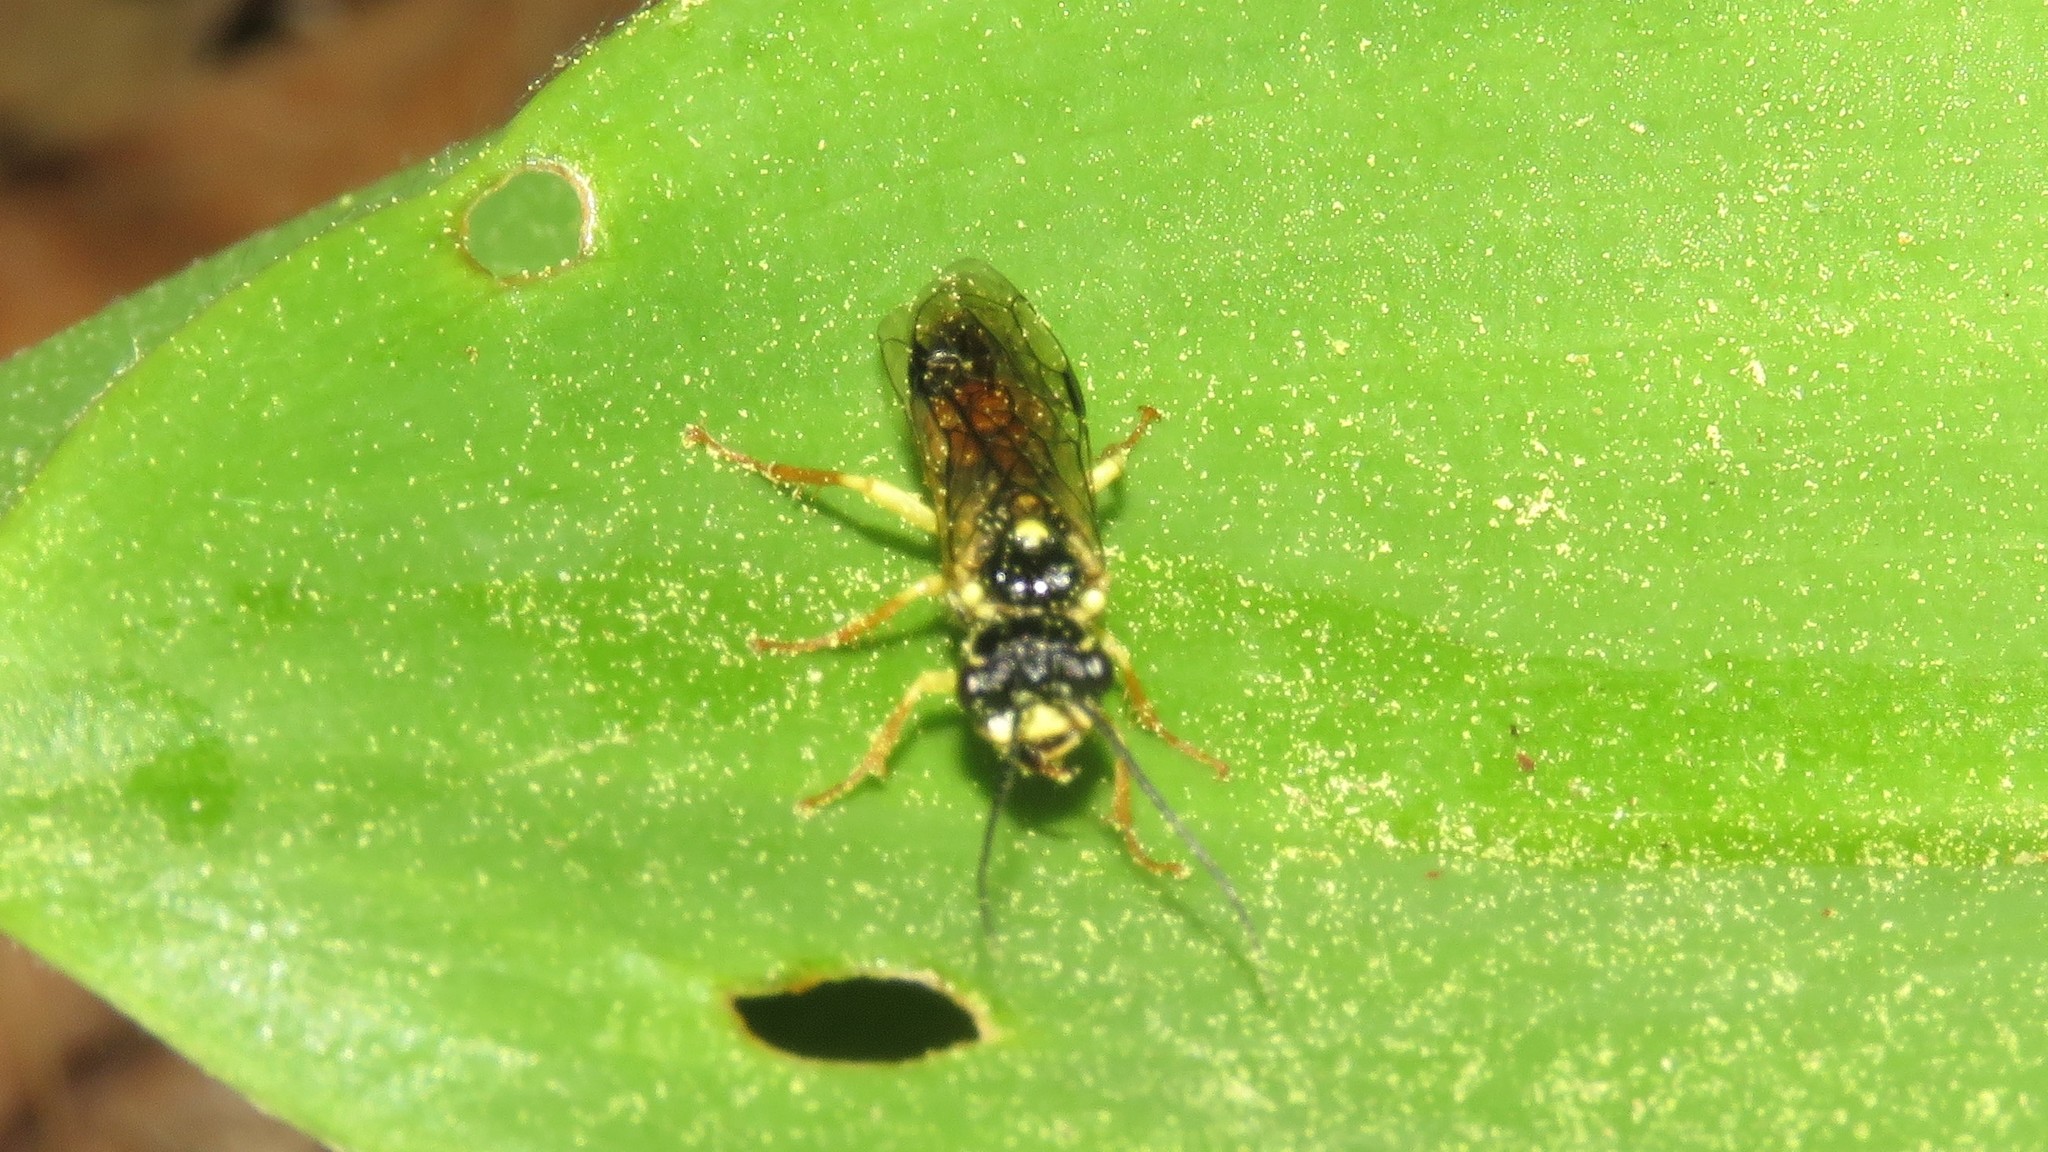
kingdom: Animalia
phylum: Arthropoda
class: Insecta
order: Hymenoptera
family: Pamphiliidae
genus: Onycholyda
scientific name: Onycholyda rufofasciata
